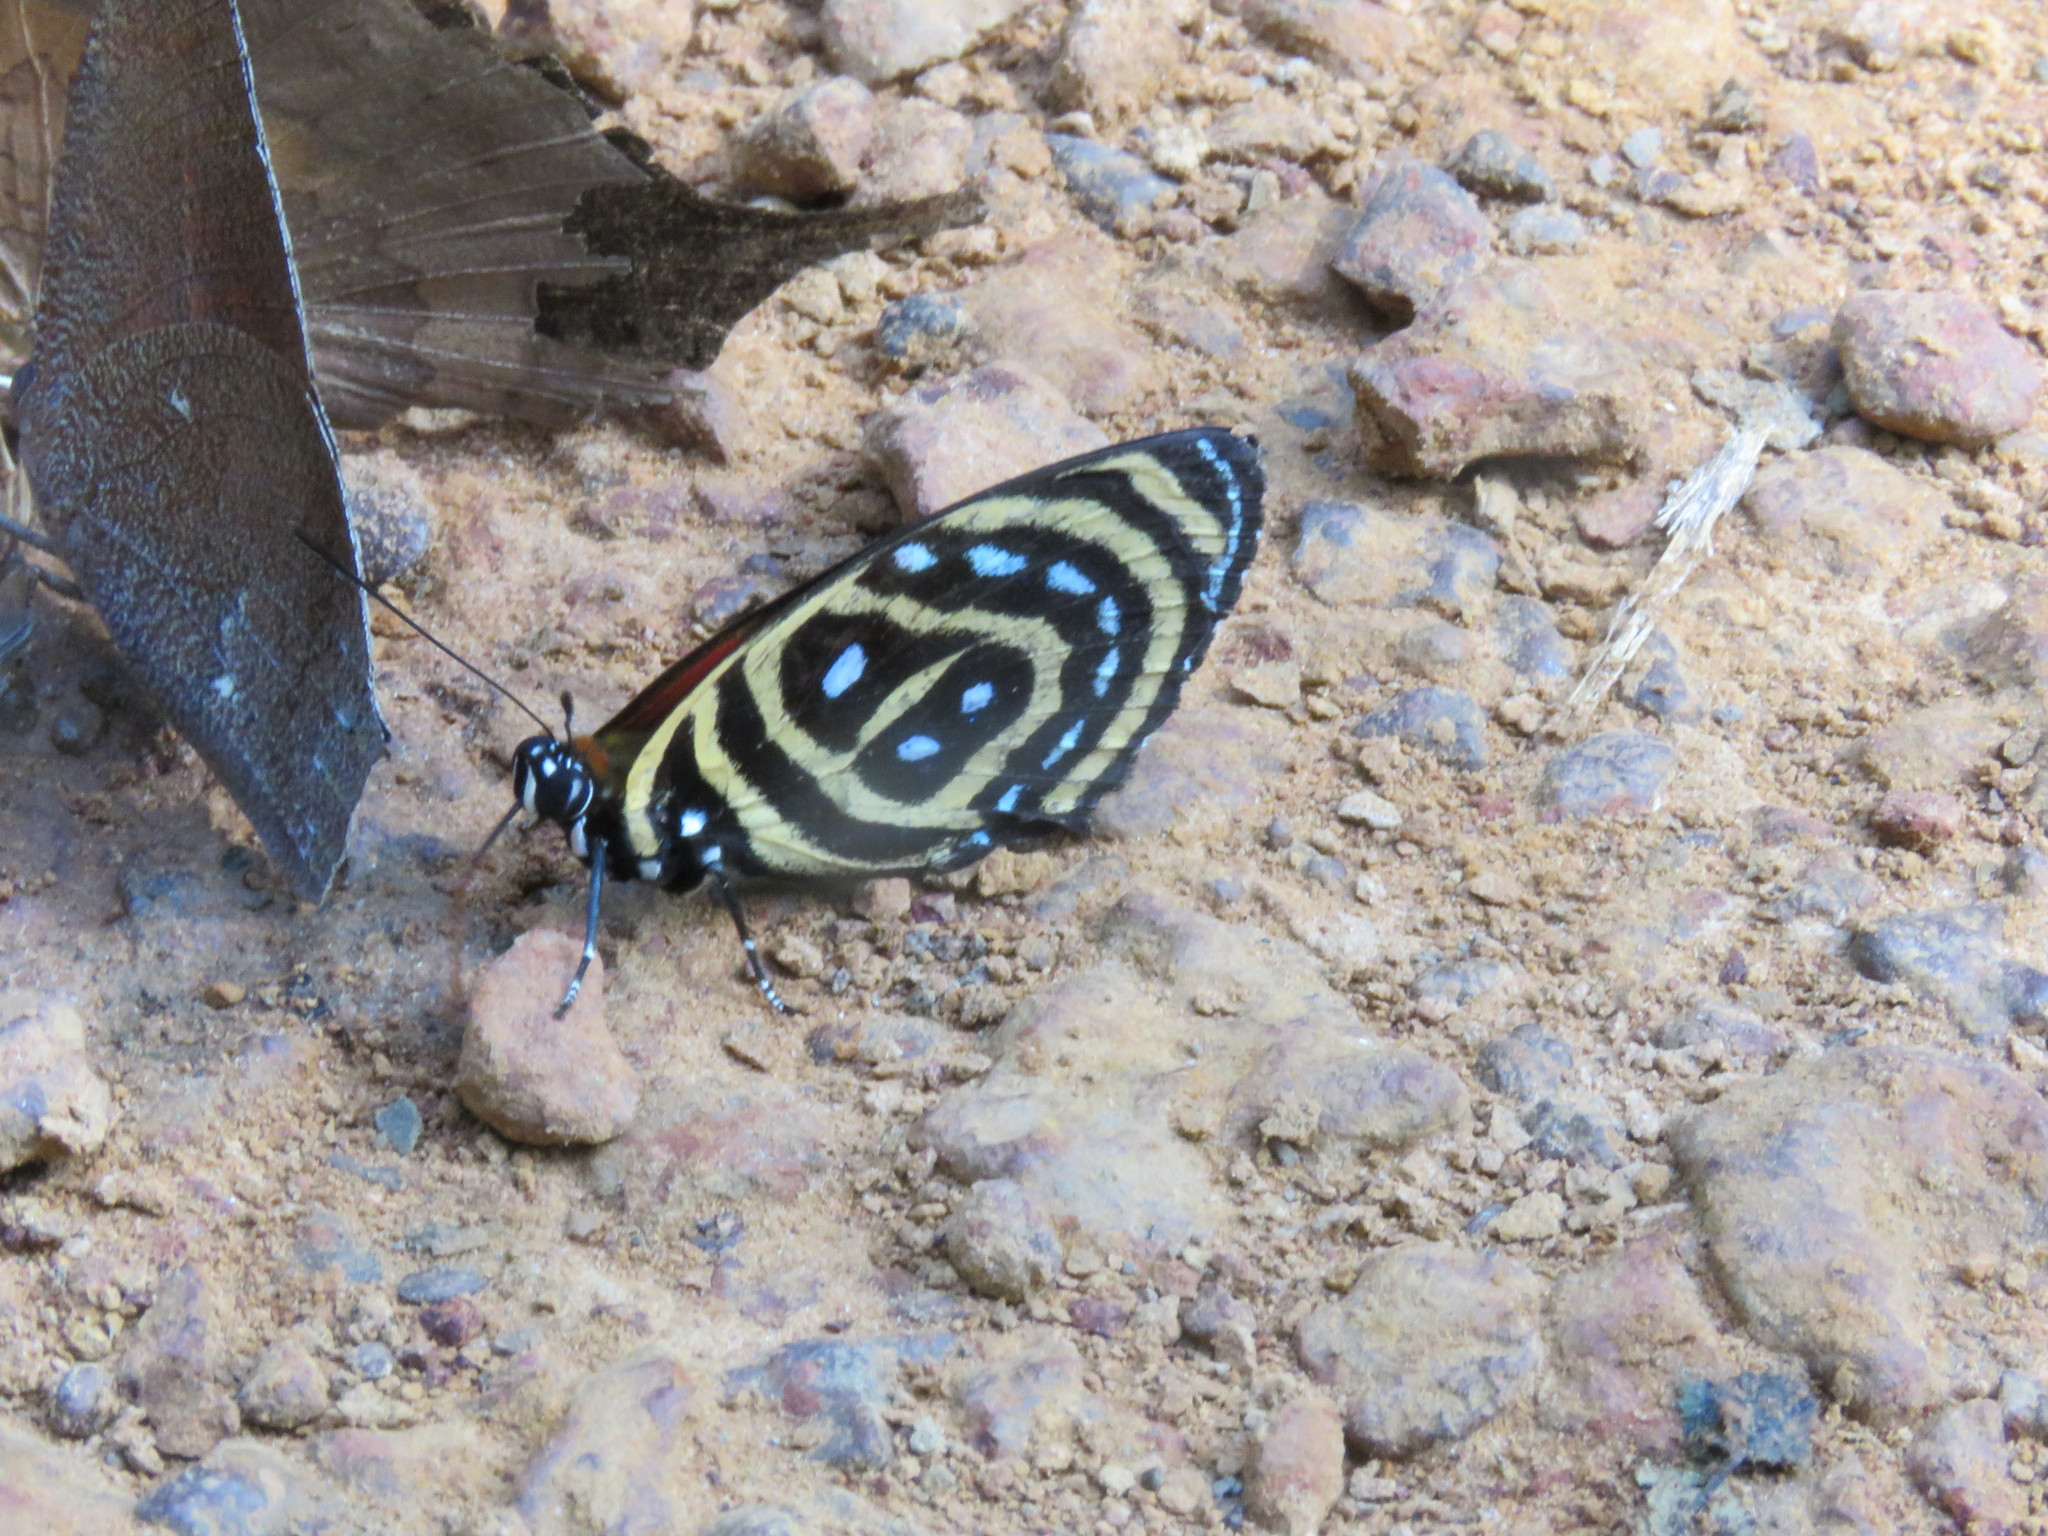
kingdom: Animalia
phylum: Arthropoda
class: Insecta
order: Lepidoptera
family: Nymphalidae
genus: Catagramma
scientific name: Catagramma astarte
